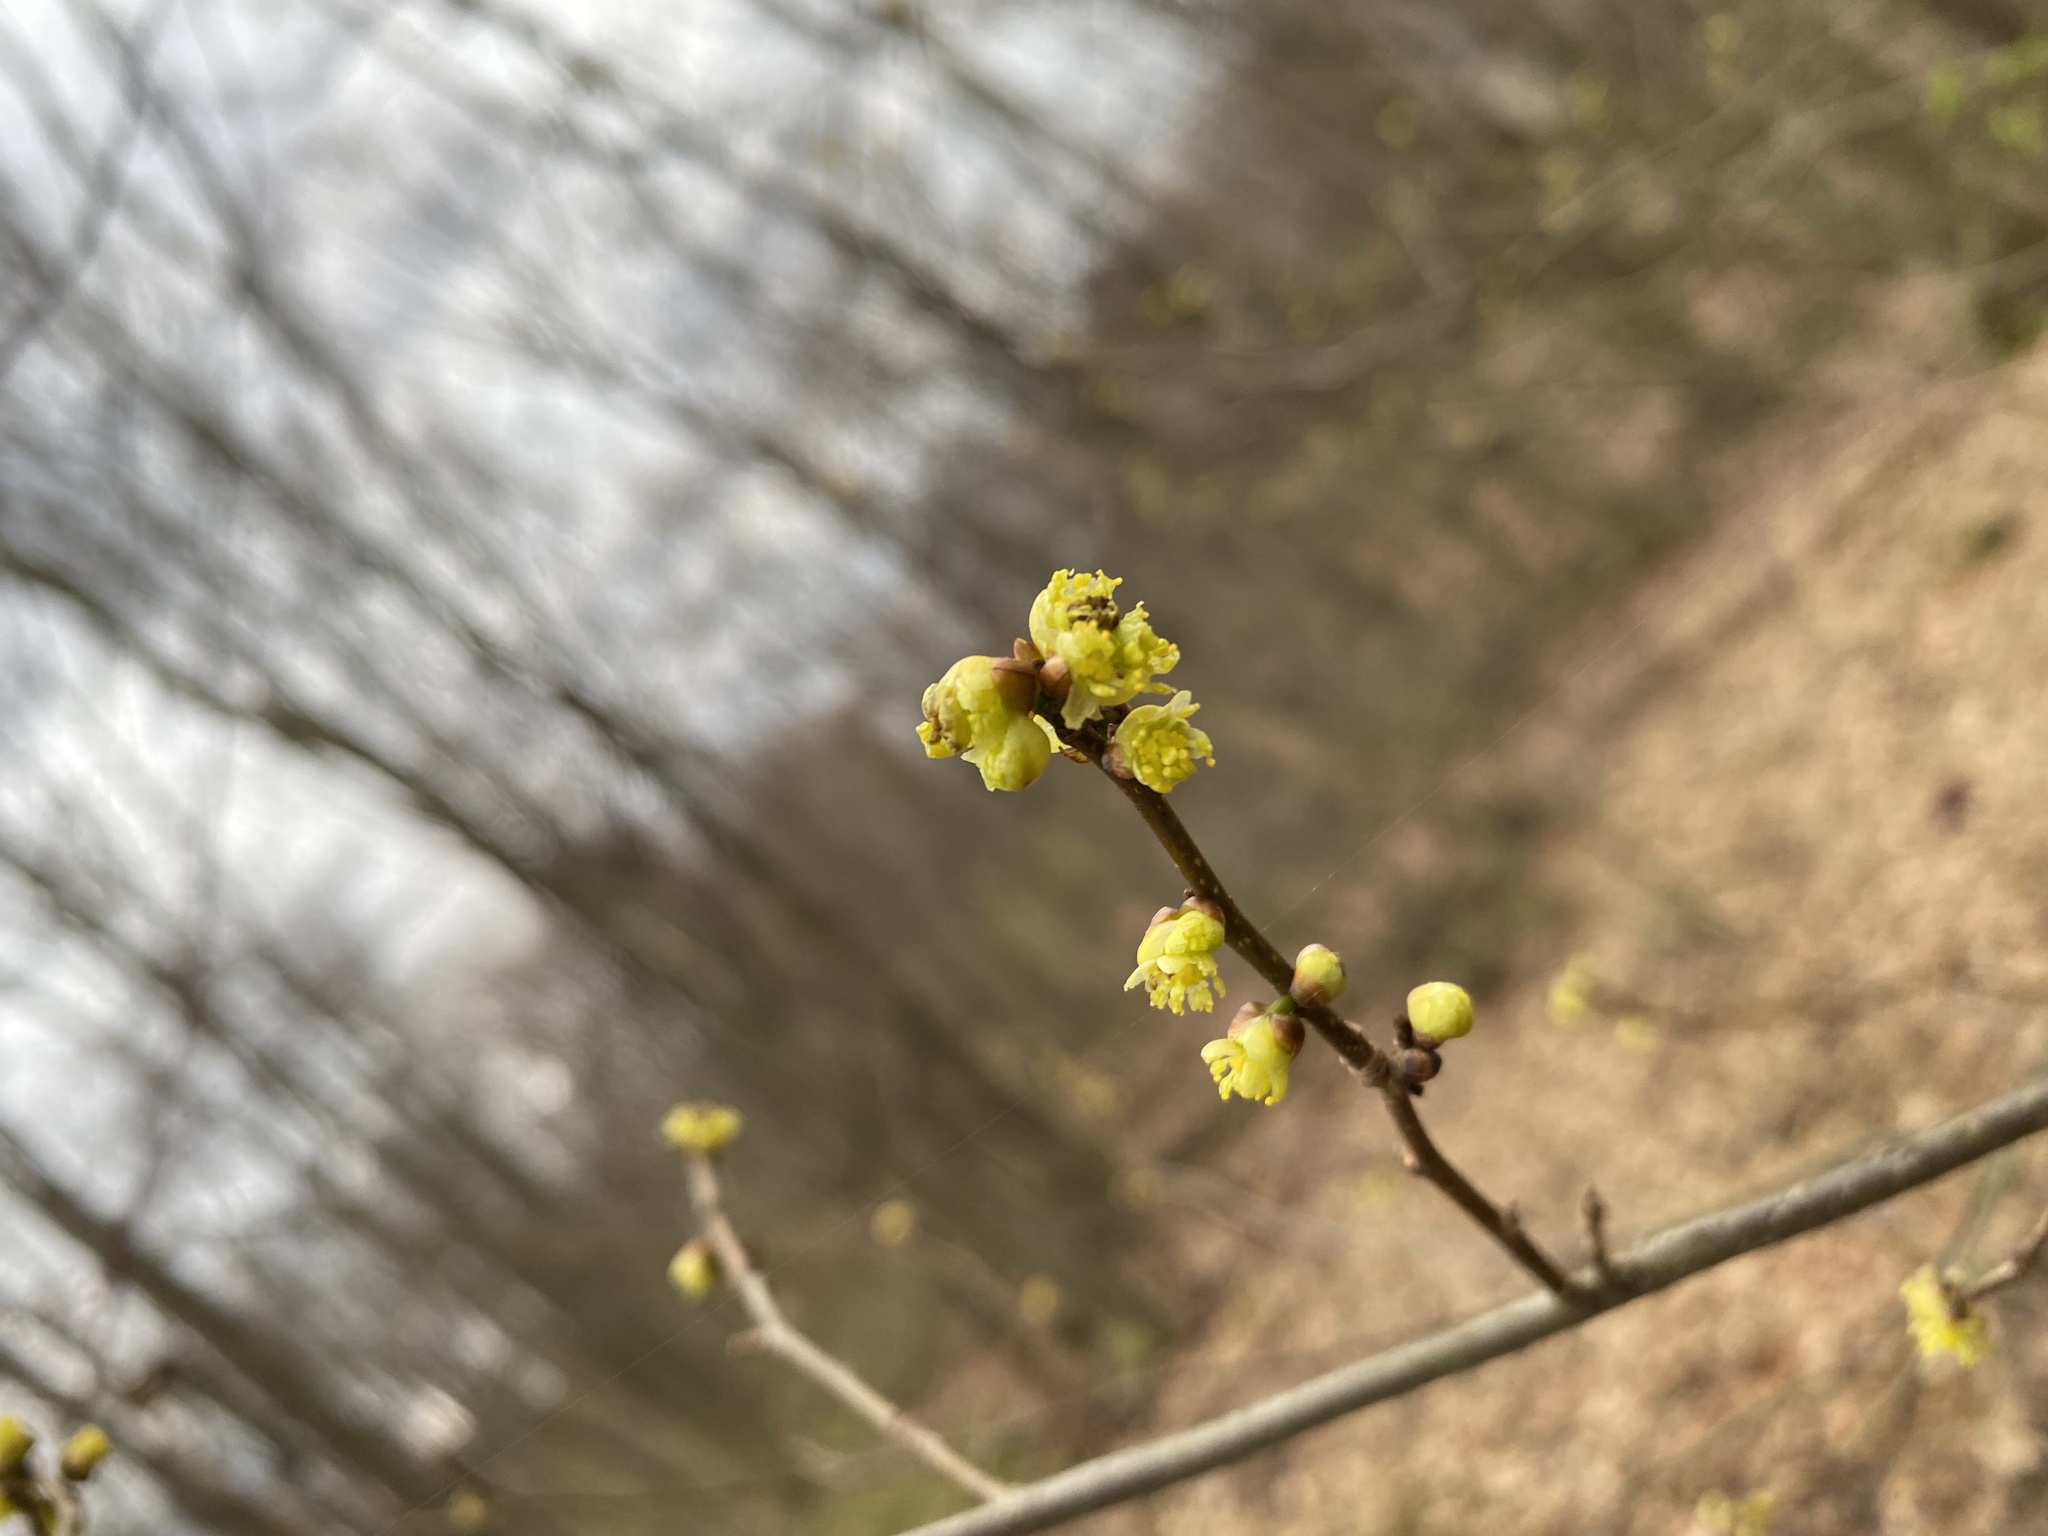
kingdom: Plantae
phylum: Tracheophyta
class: Magnoliopsida
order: Laurales
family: Lauraceae
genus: Lindera
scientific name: Lindera benzoin
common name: Spicebush
